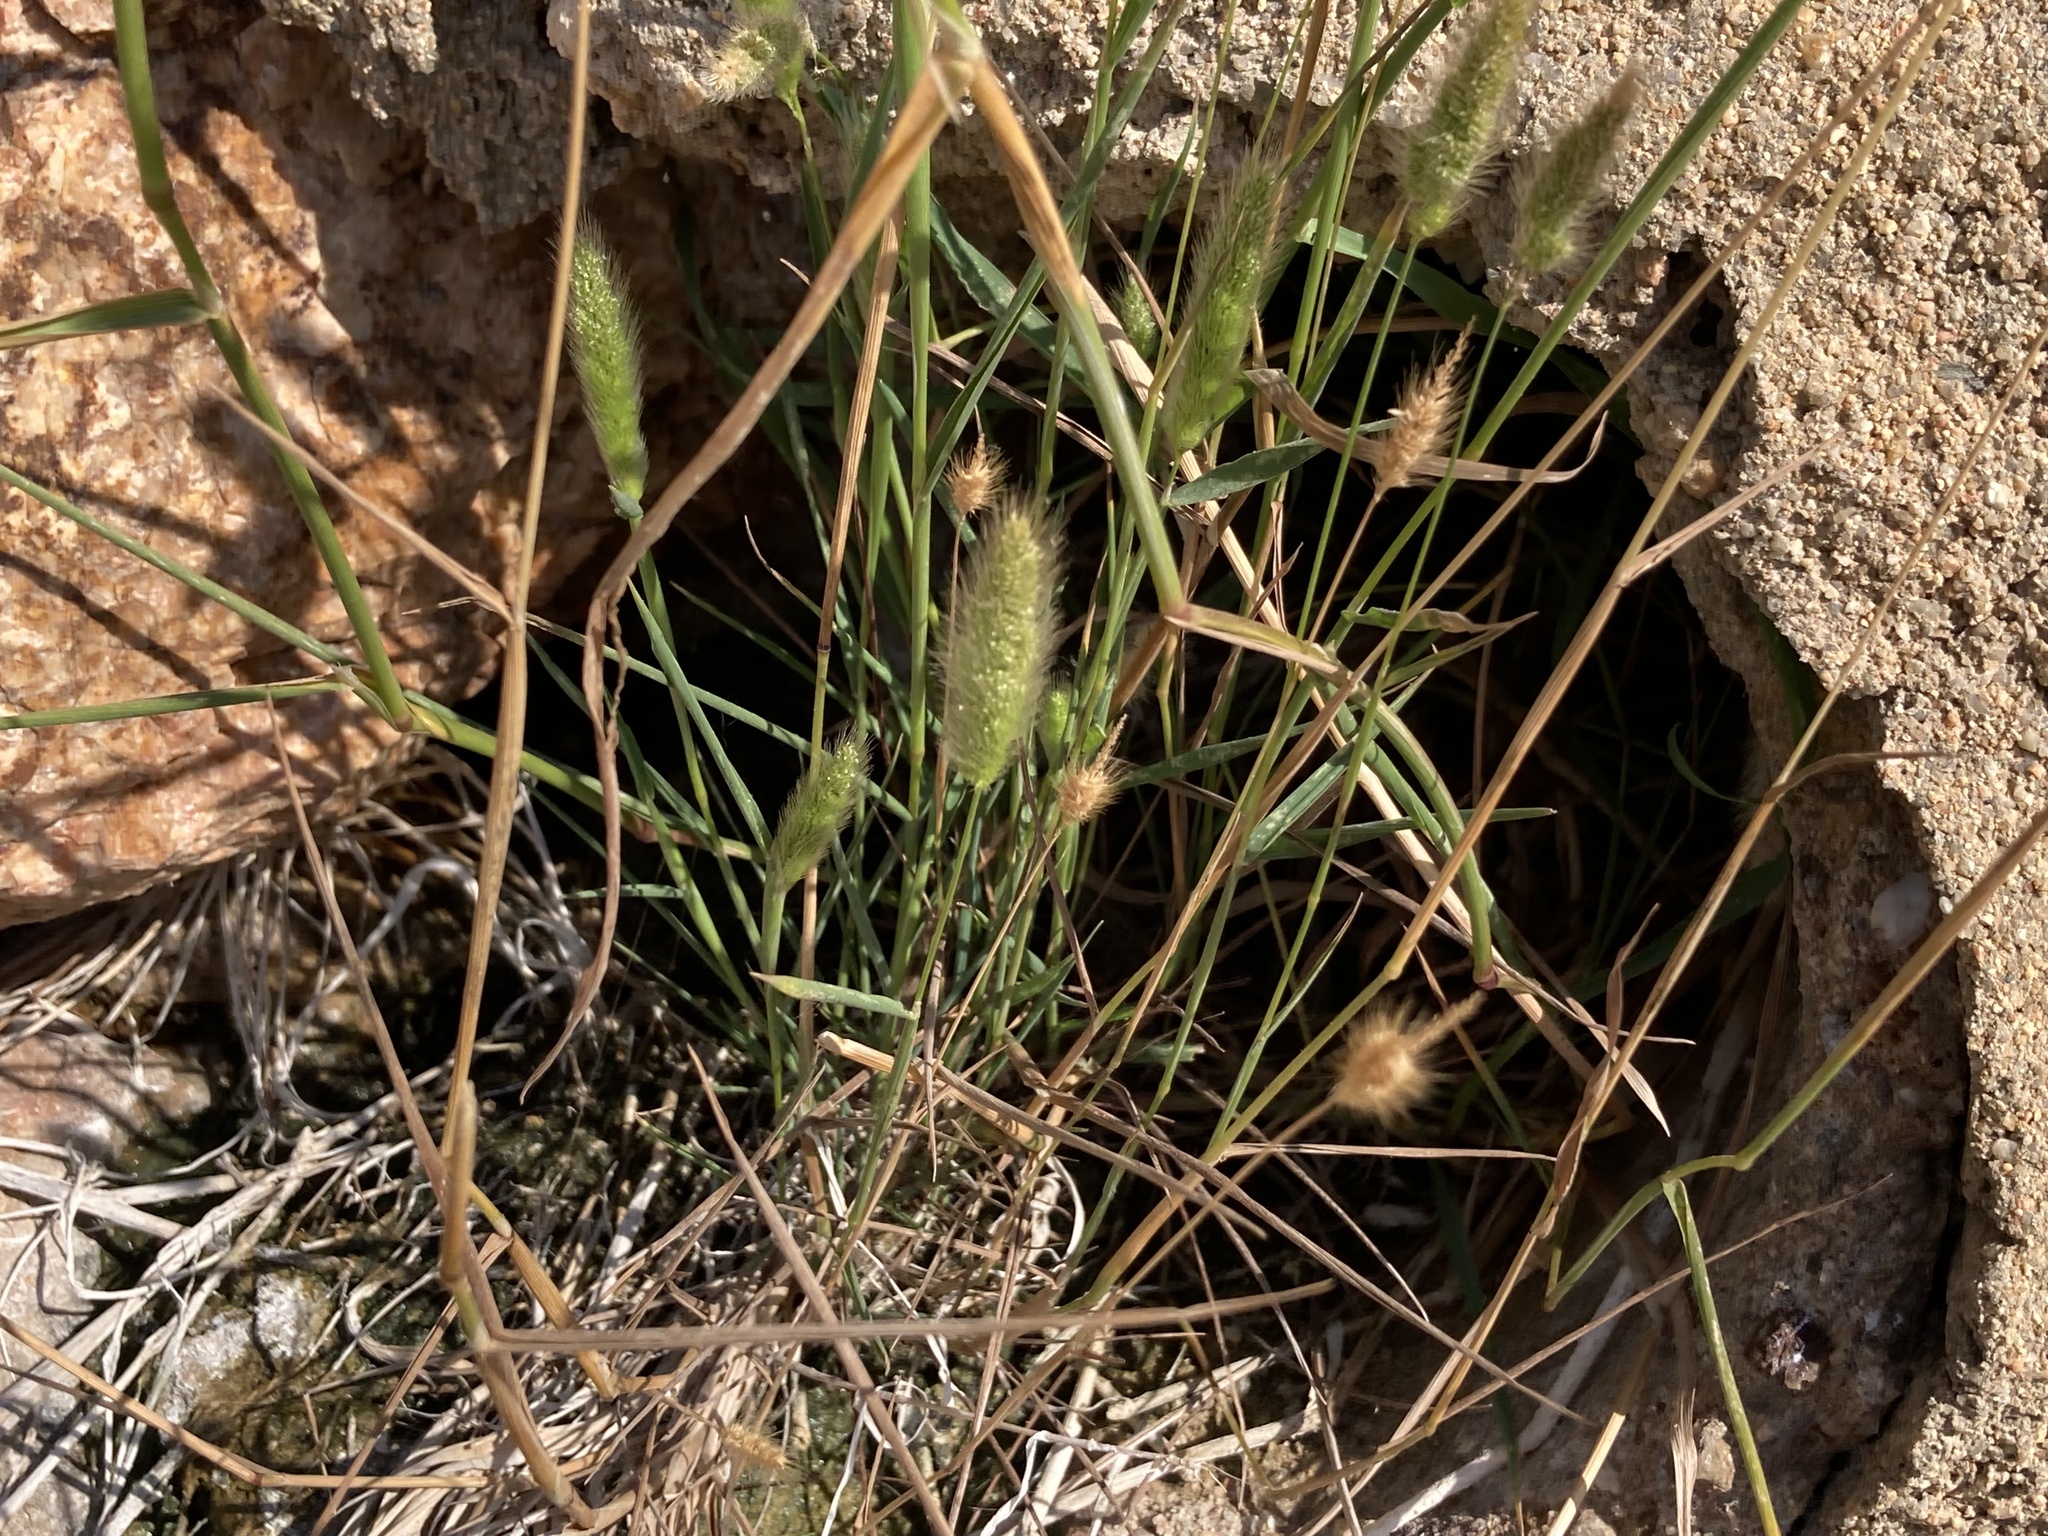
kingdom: Plantae
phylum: Tracheophyta
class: Liliopsida
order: Poales
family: Poaceae
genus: Polypogon
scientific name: Polypogon monspeliensis
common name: Annual rabbitsfoot grass
